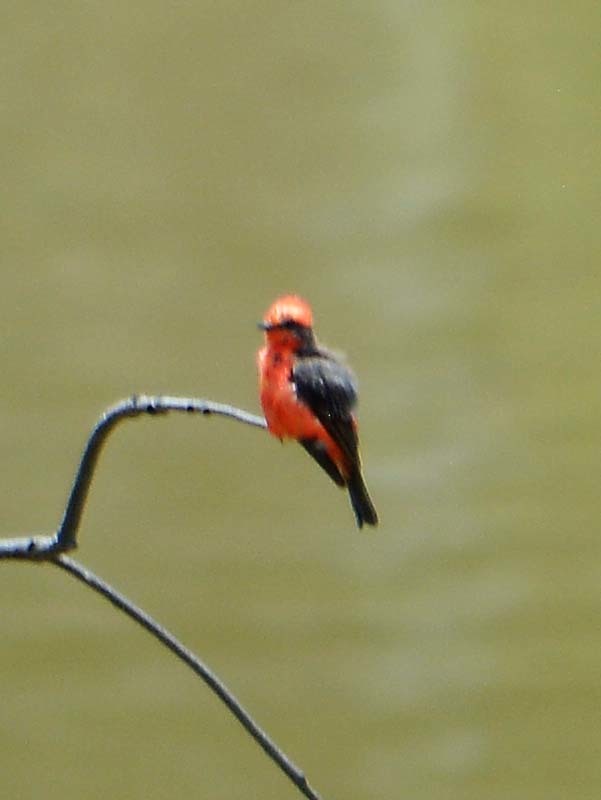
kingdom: Animalia
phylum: Chordata
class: Aves
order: Passeriformes
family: Tyrannidae
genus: Pyrocephalus
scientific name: Pyrocephalus rubinus
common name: Vermilion flycatcher
